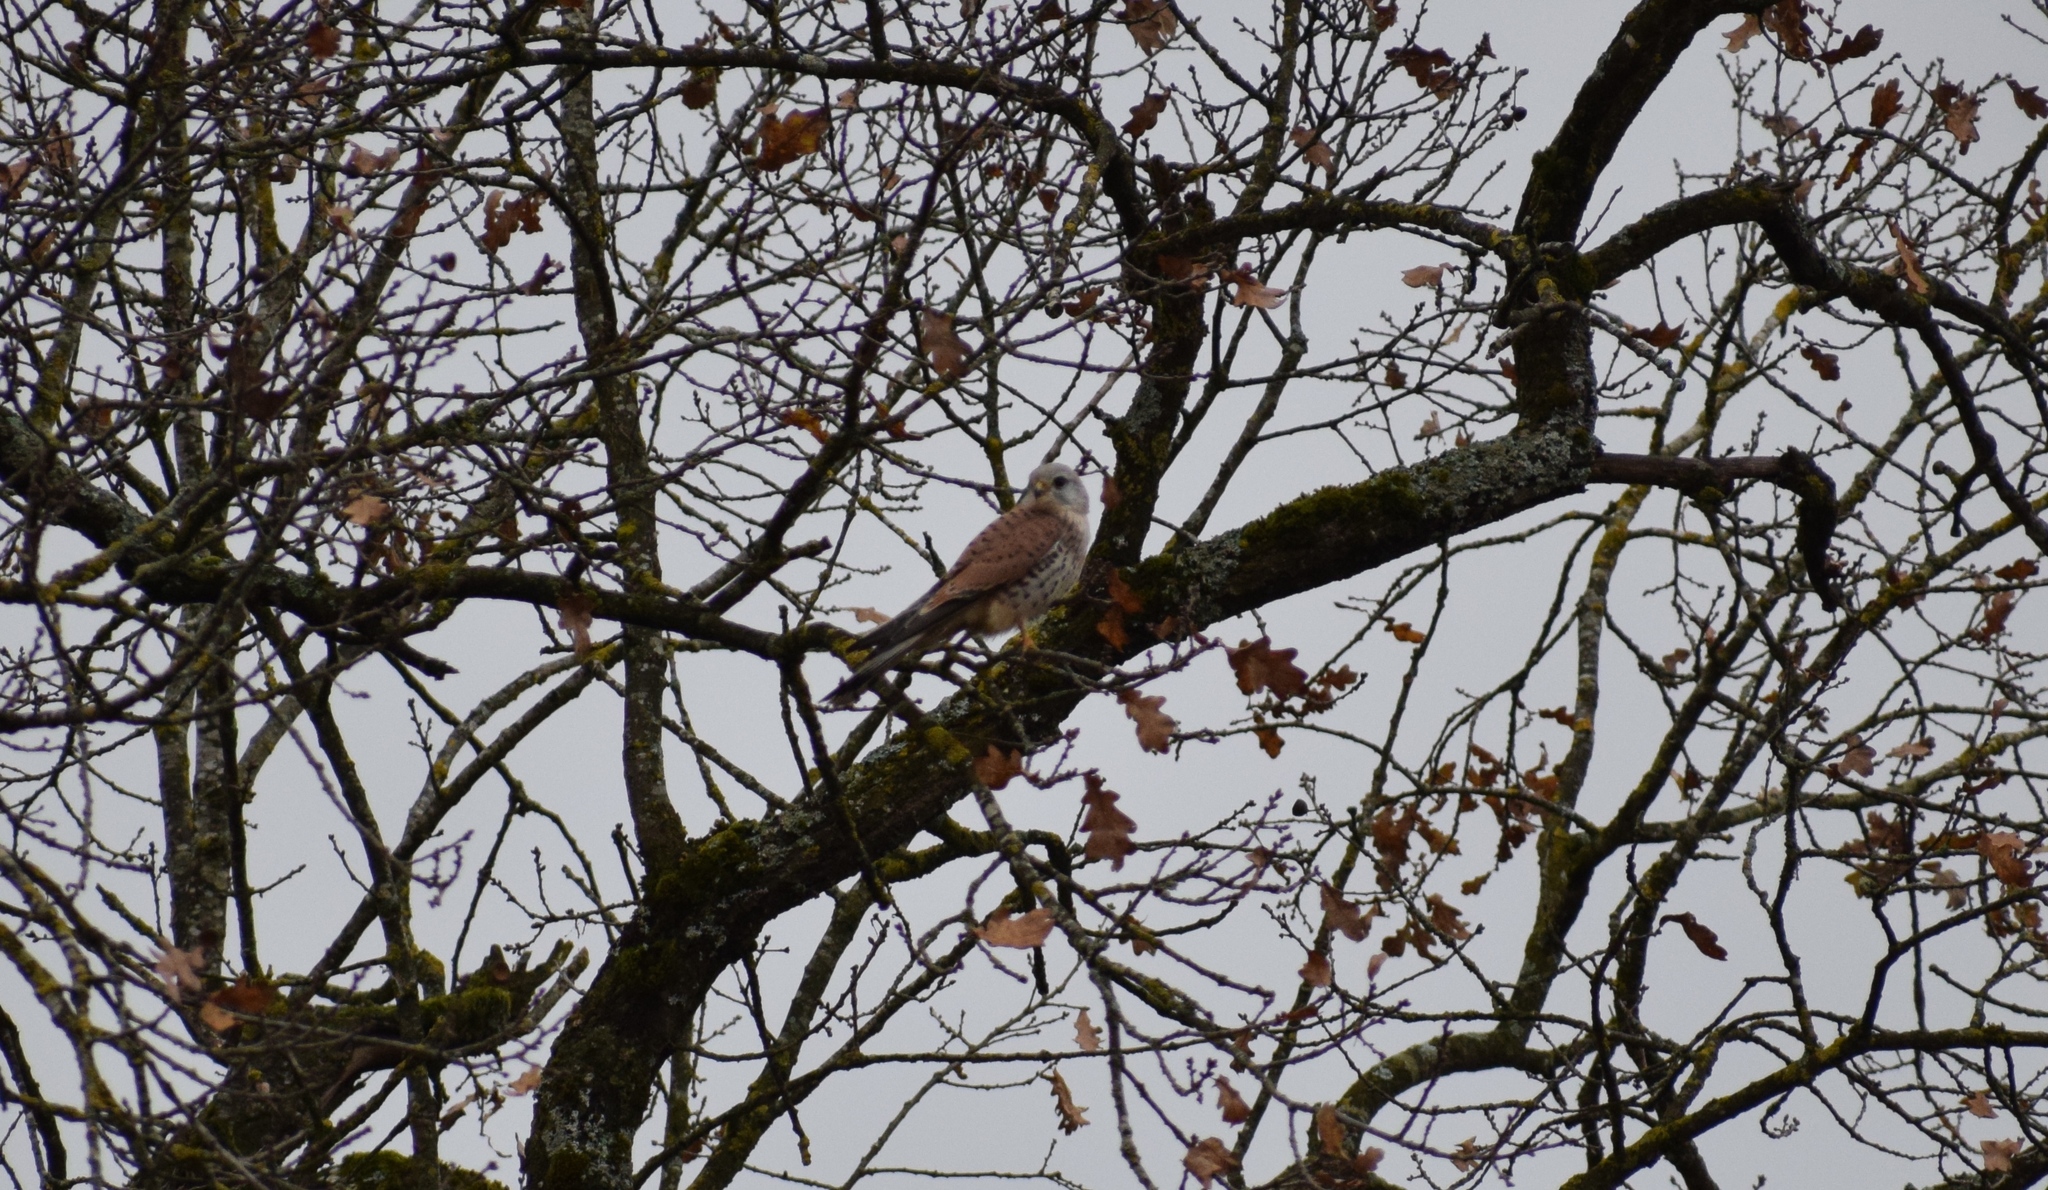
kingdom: Animalia
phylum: Chordata
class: Aves
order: Falconiformes
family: Falconidae
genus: Falco
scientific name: Falco tinnunculus
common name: Common kestrel
